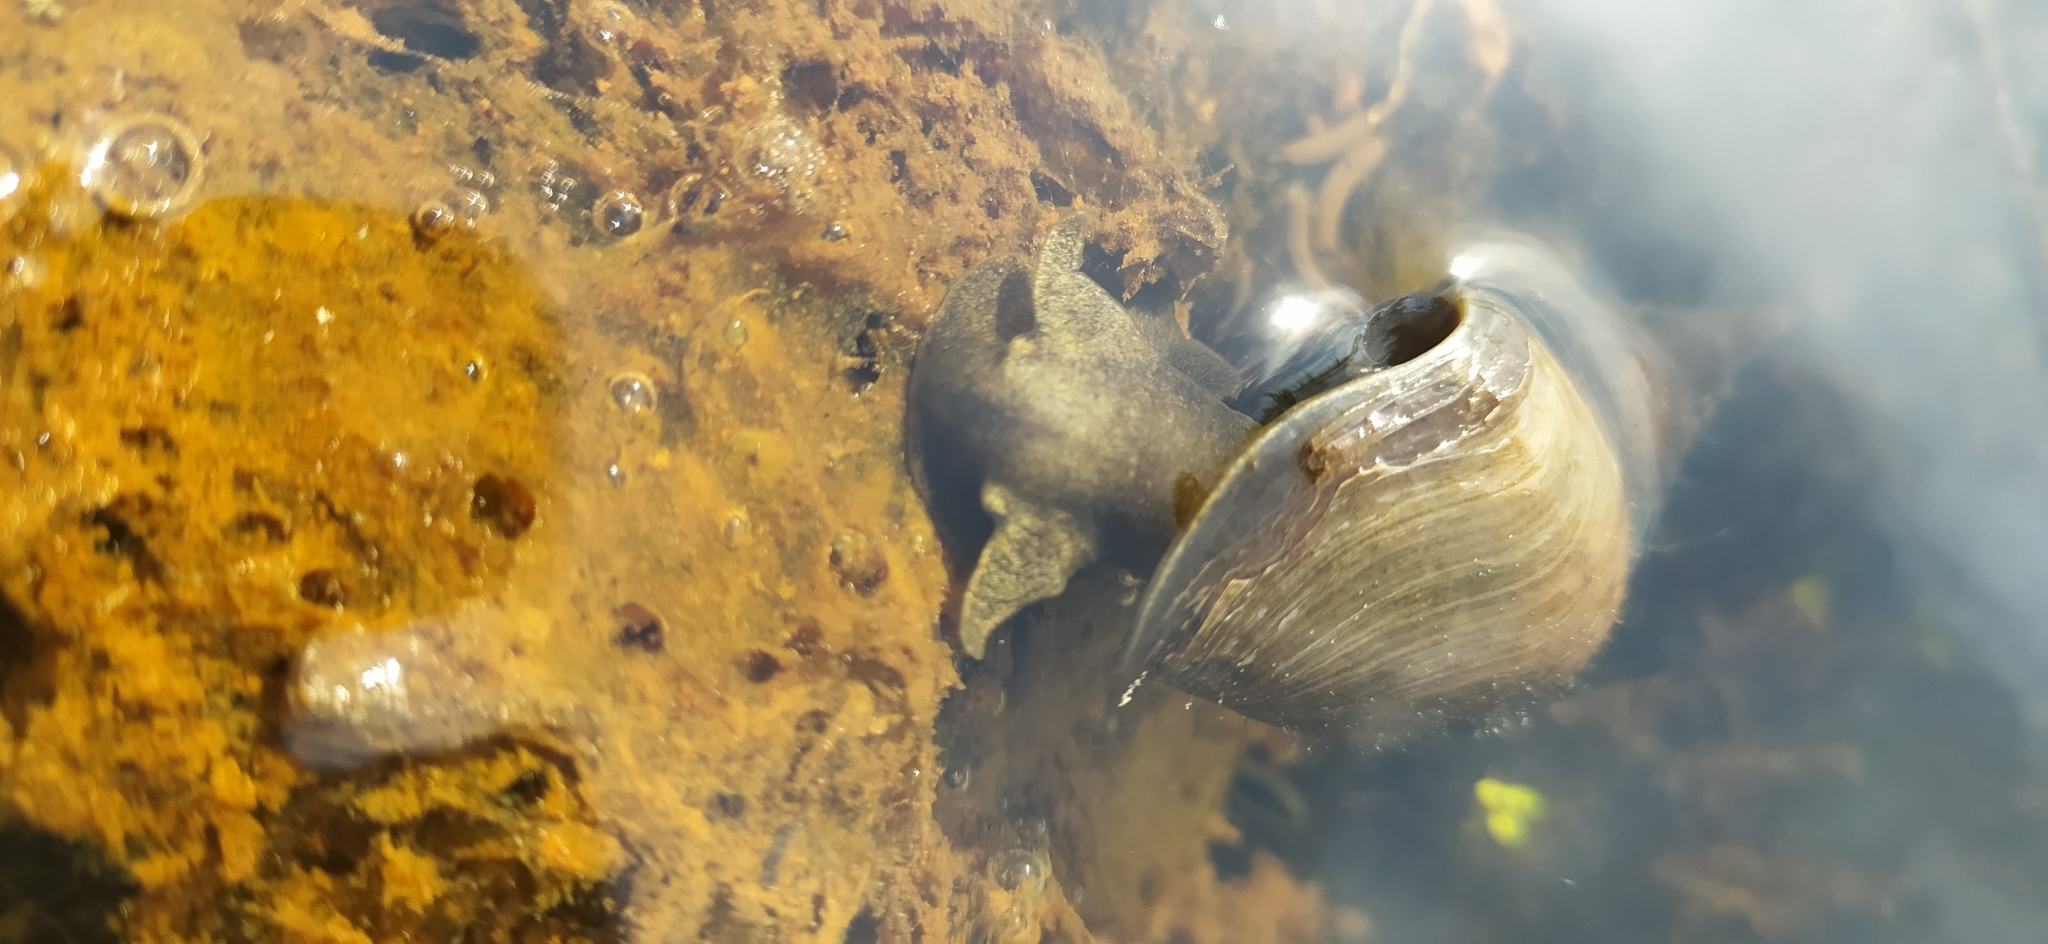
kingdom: Animalia
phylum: Mollusca
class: Gastropoda
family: Lymnaeidae
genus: Lymnaea
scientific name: Lymnaea stagnalis
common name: Great pond snail
